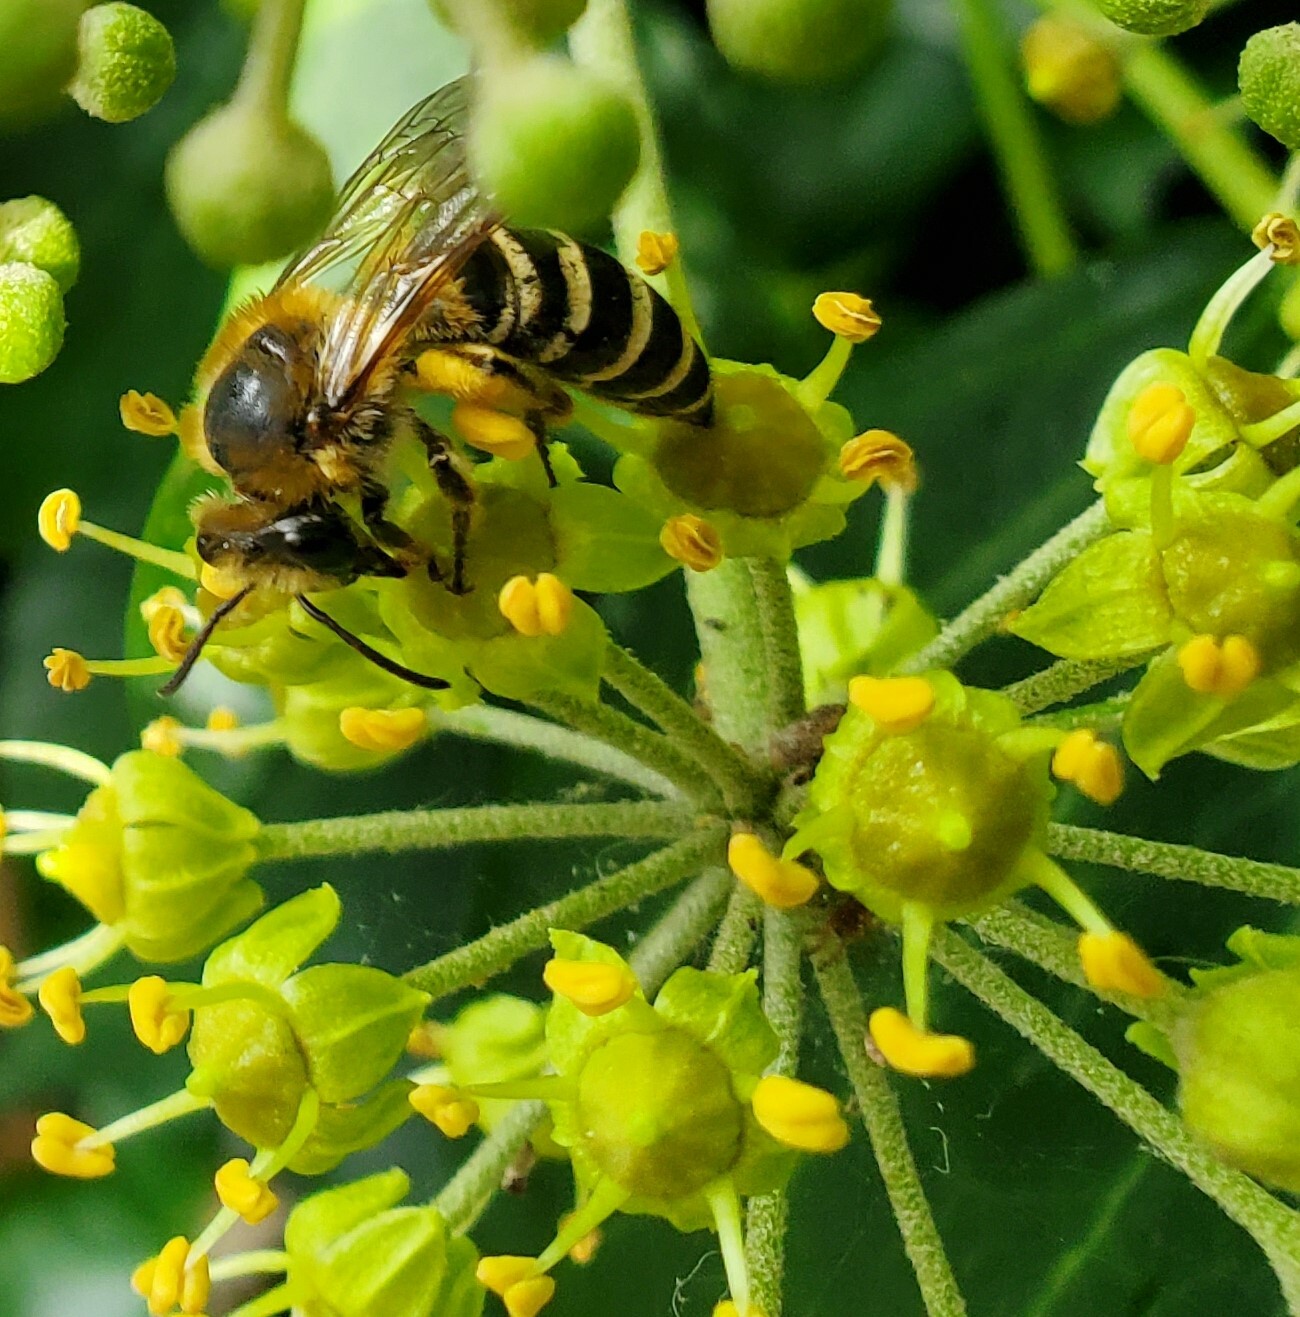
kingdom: Animalia
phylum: Arthropoda
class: Insecta
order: Hymenoptera
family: Colletidae
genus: Colletes
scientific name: Colletes hederae
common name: Ivy bee
